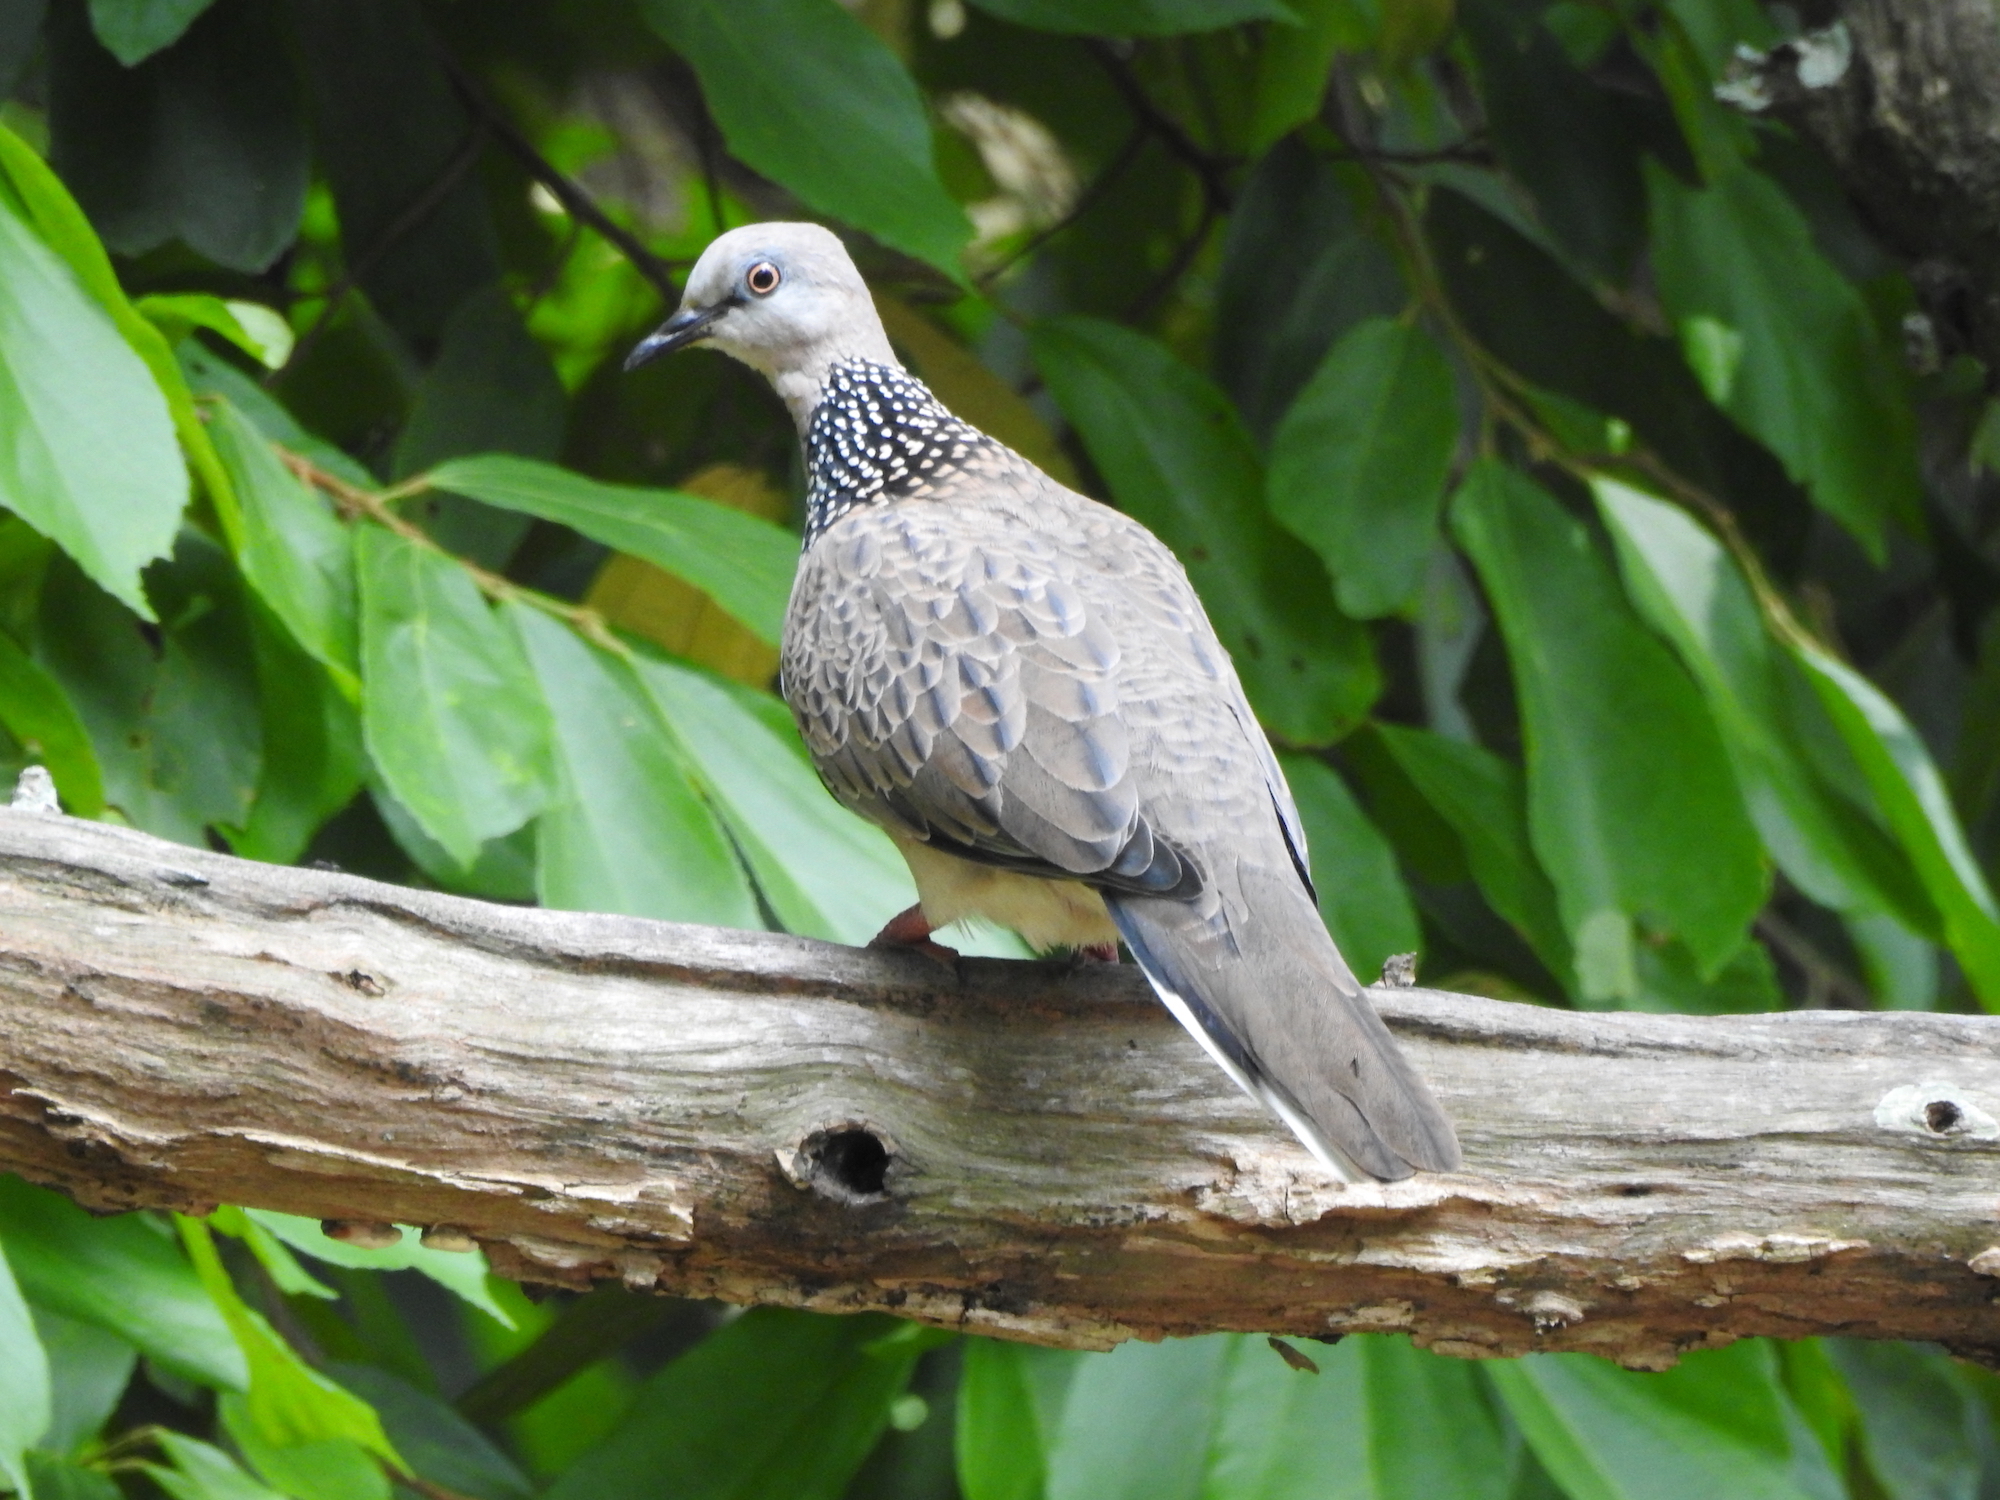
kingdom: Animalia
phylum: Chordata
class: Aves
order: Columbiformes
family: Columbidae
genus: Spilopelia
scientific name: Spilopelia chinensis
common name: Spotted dove
